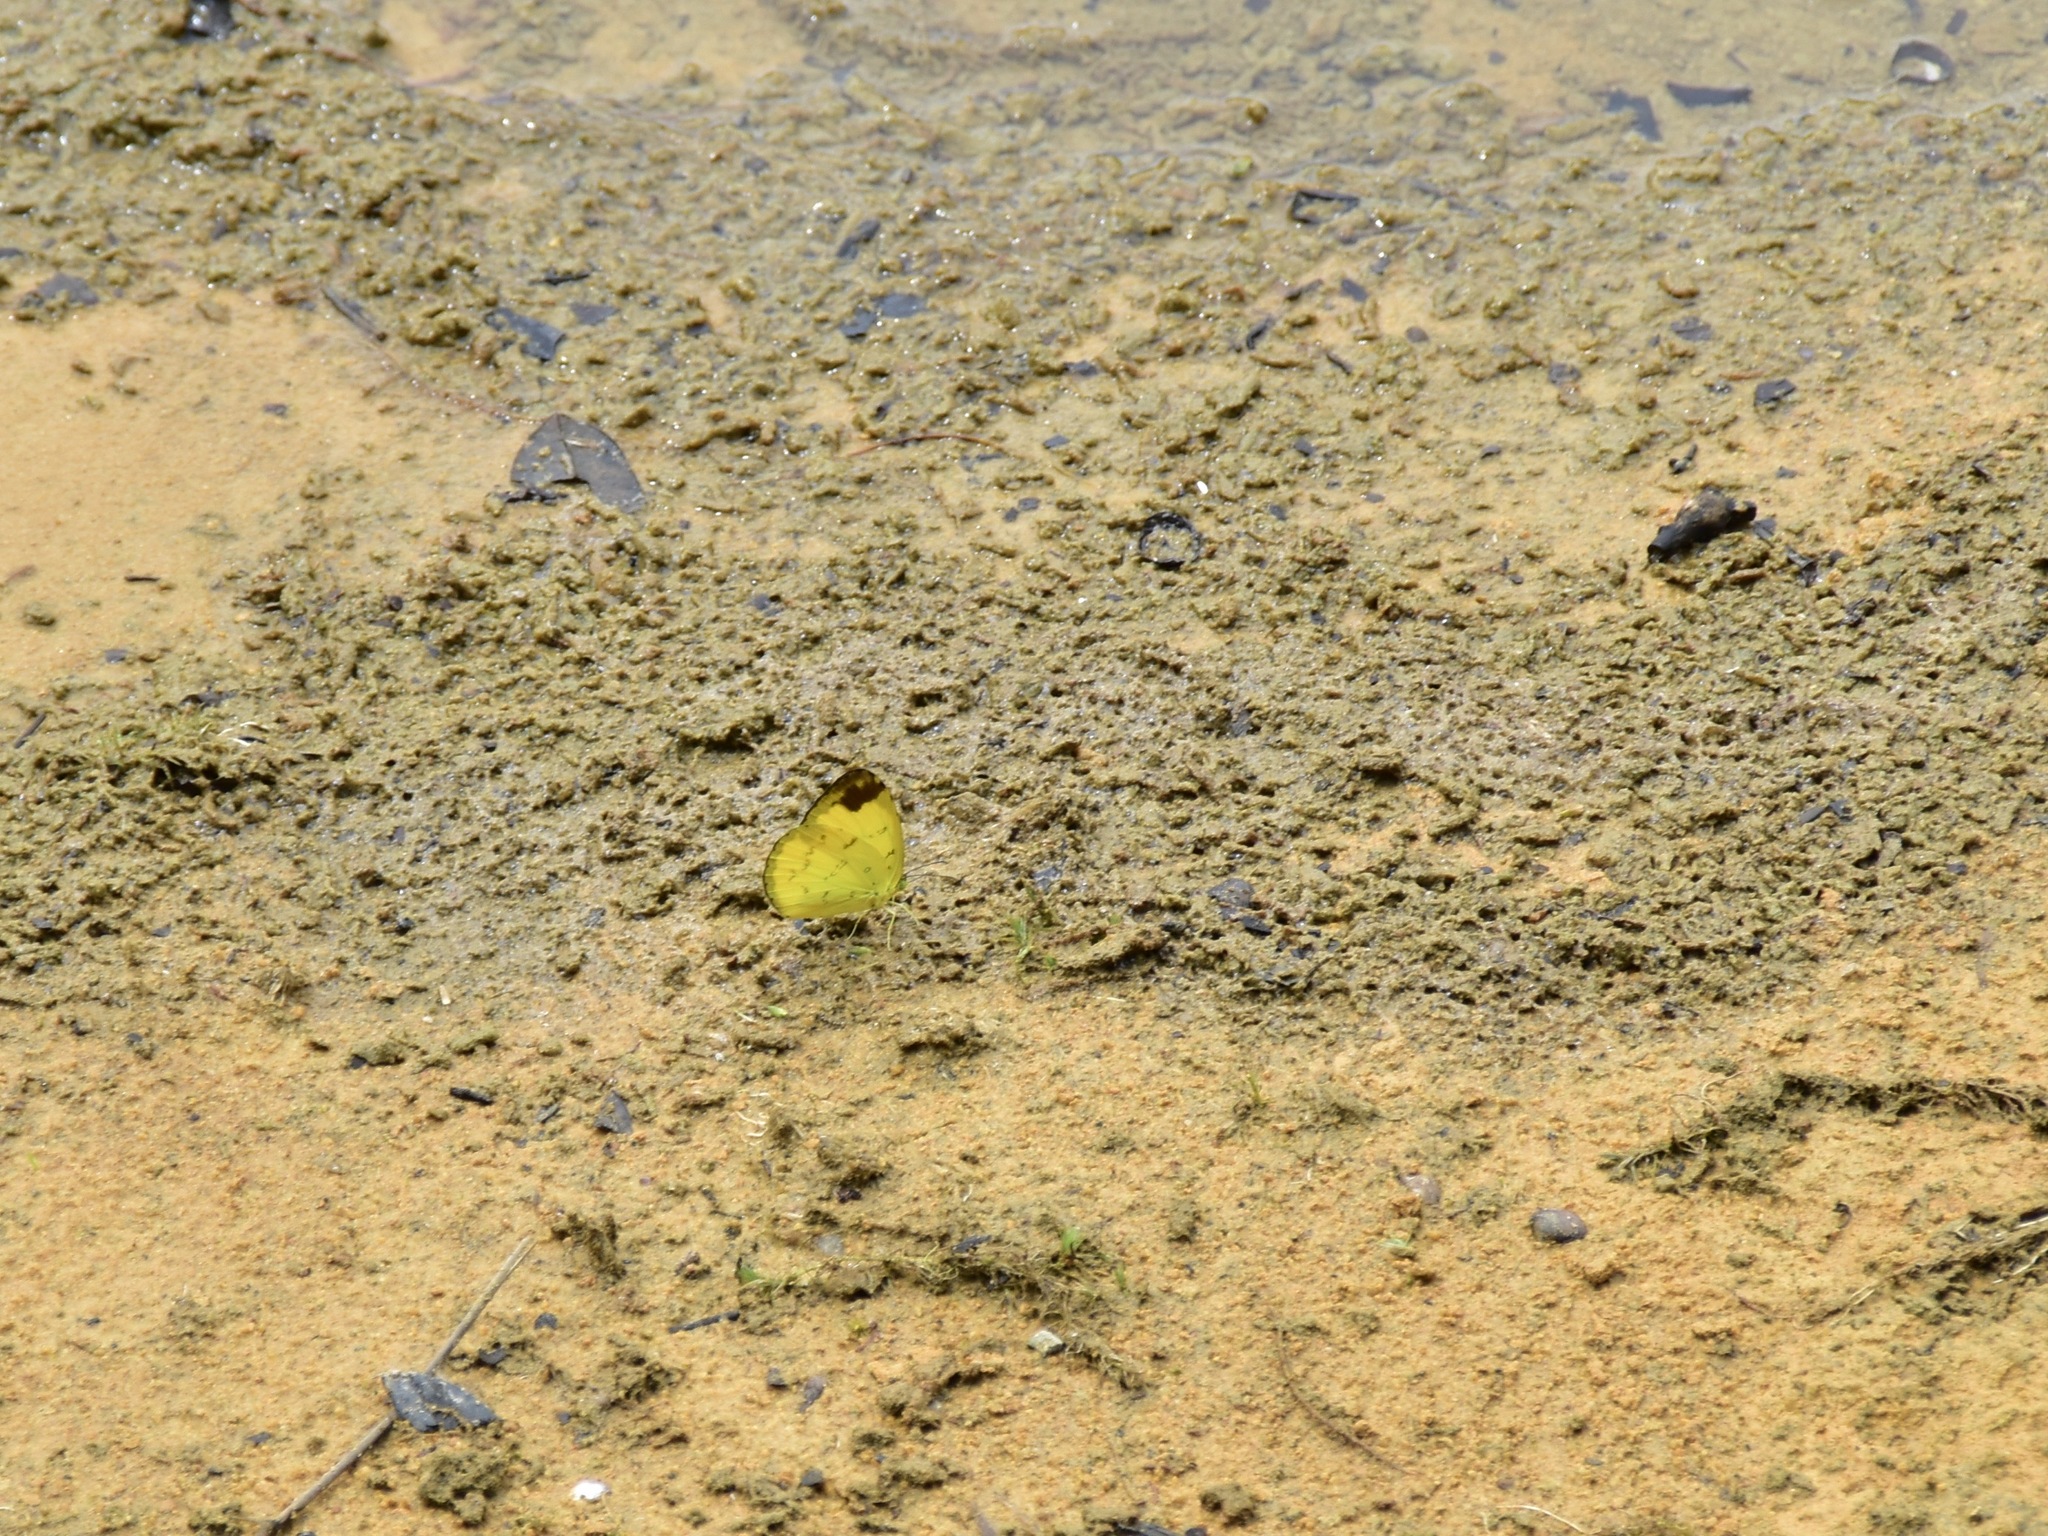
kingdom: Animalia
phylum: Arthropoda
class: Insecta
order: Lepidoptera
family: Pieridae
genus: Eurema
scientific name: Eurema simulatrix
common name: Hill grass yellow
